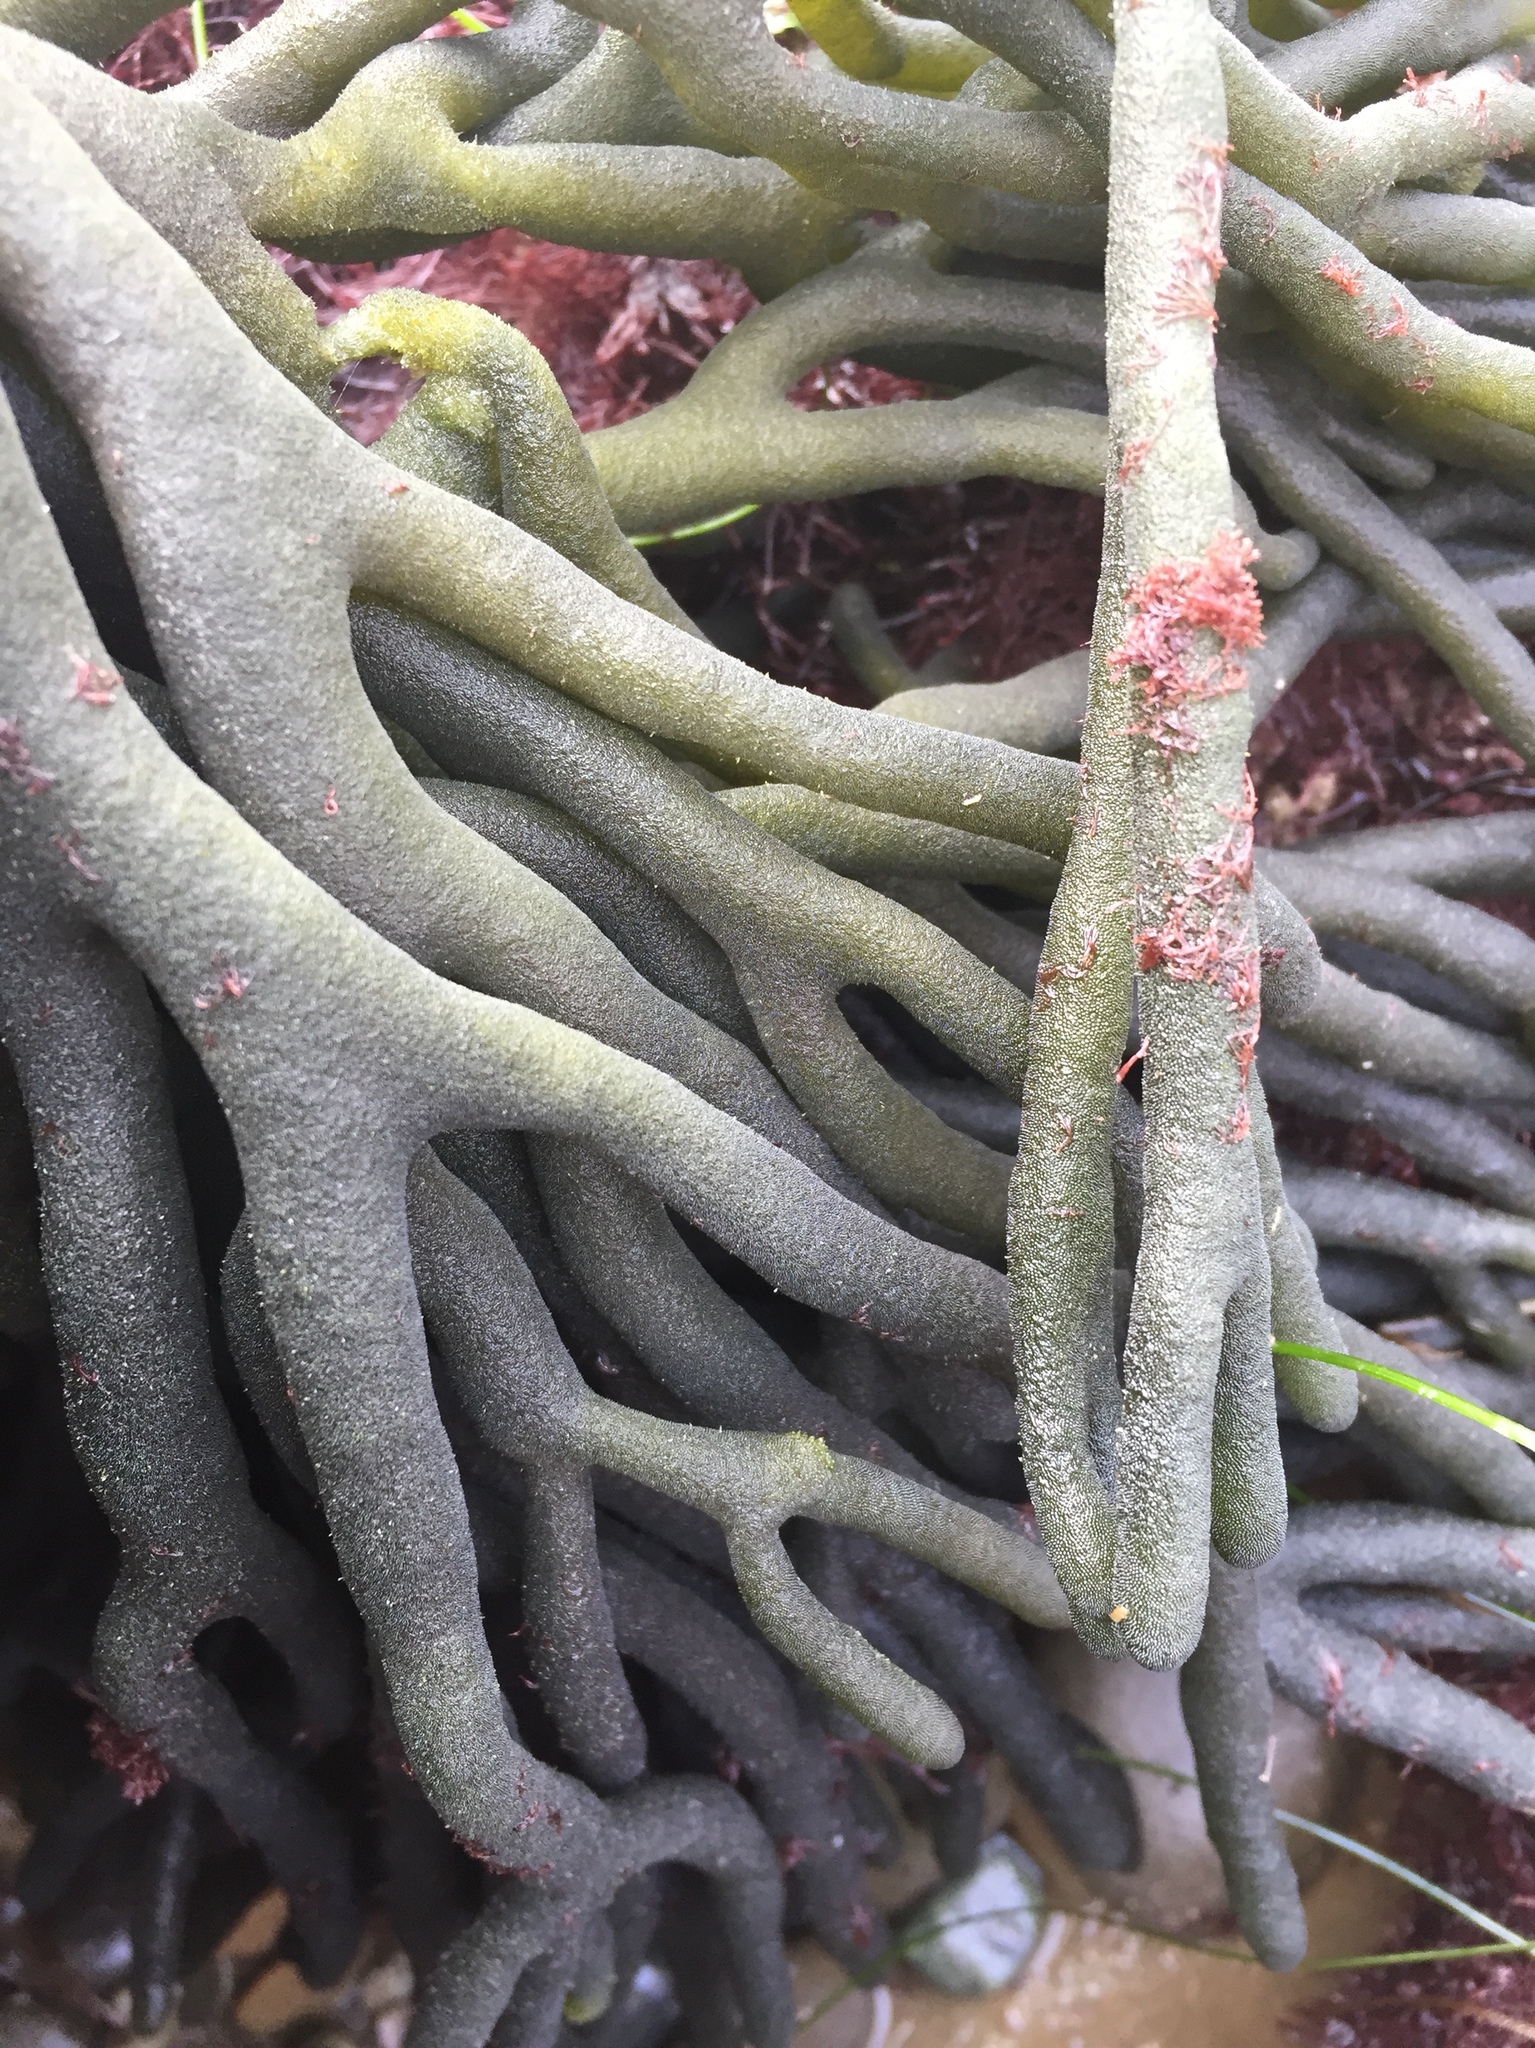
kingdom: Plantae
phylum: Chlorophyta
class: Ulvophyceae
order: Bryopsidales
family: Codiaceae
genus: Codium
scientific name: Codium fragile
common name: Dead man's fingers
